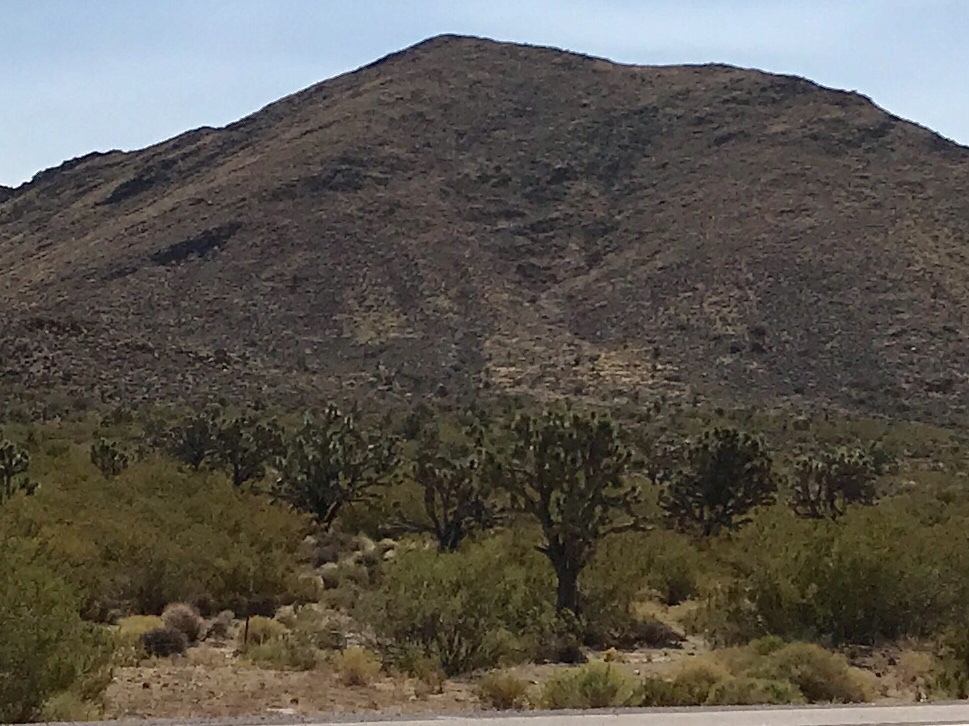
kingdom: Plantae
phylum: Tracheophyta
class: Liliopsida
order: Asparagales
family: Asparagaceae
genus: Yucca
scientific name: Yucca brevifolia
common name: Joshua tree
